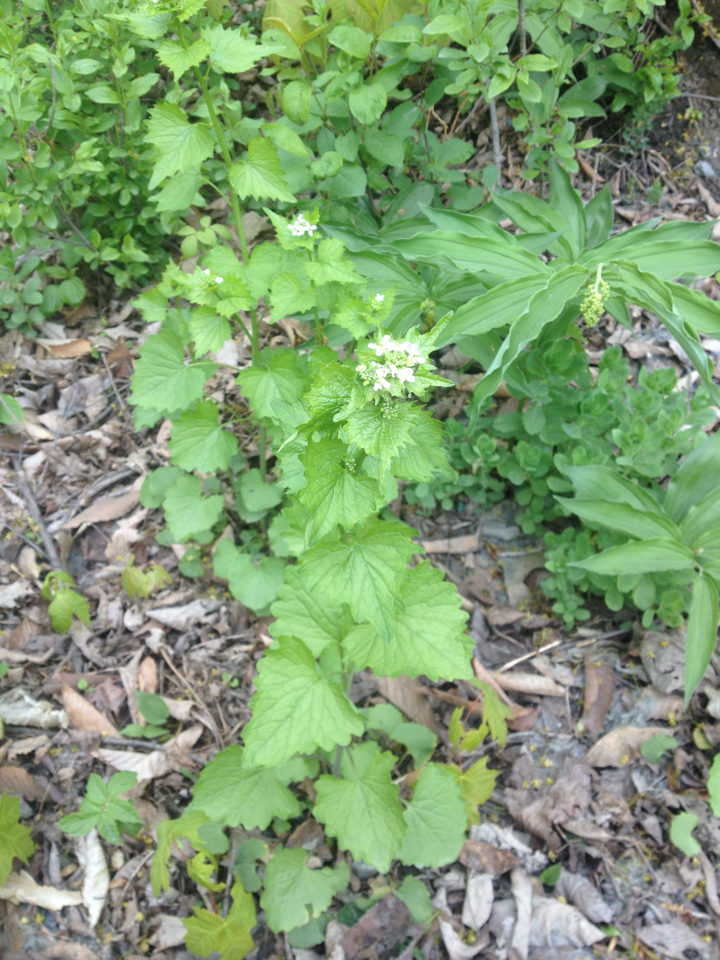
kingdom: Plantae
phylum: Tracheophyta
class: Magnoliopsida
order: Brassicales
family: Brassicaceae
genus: Alliaria
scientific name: Alliaria petiolata
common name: Garlic mustard
